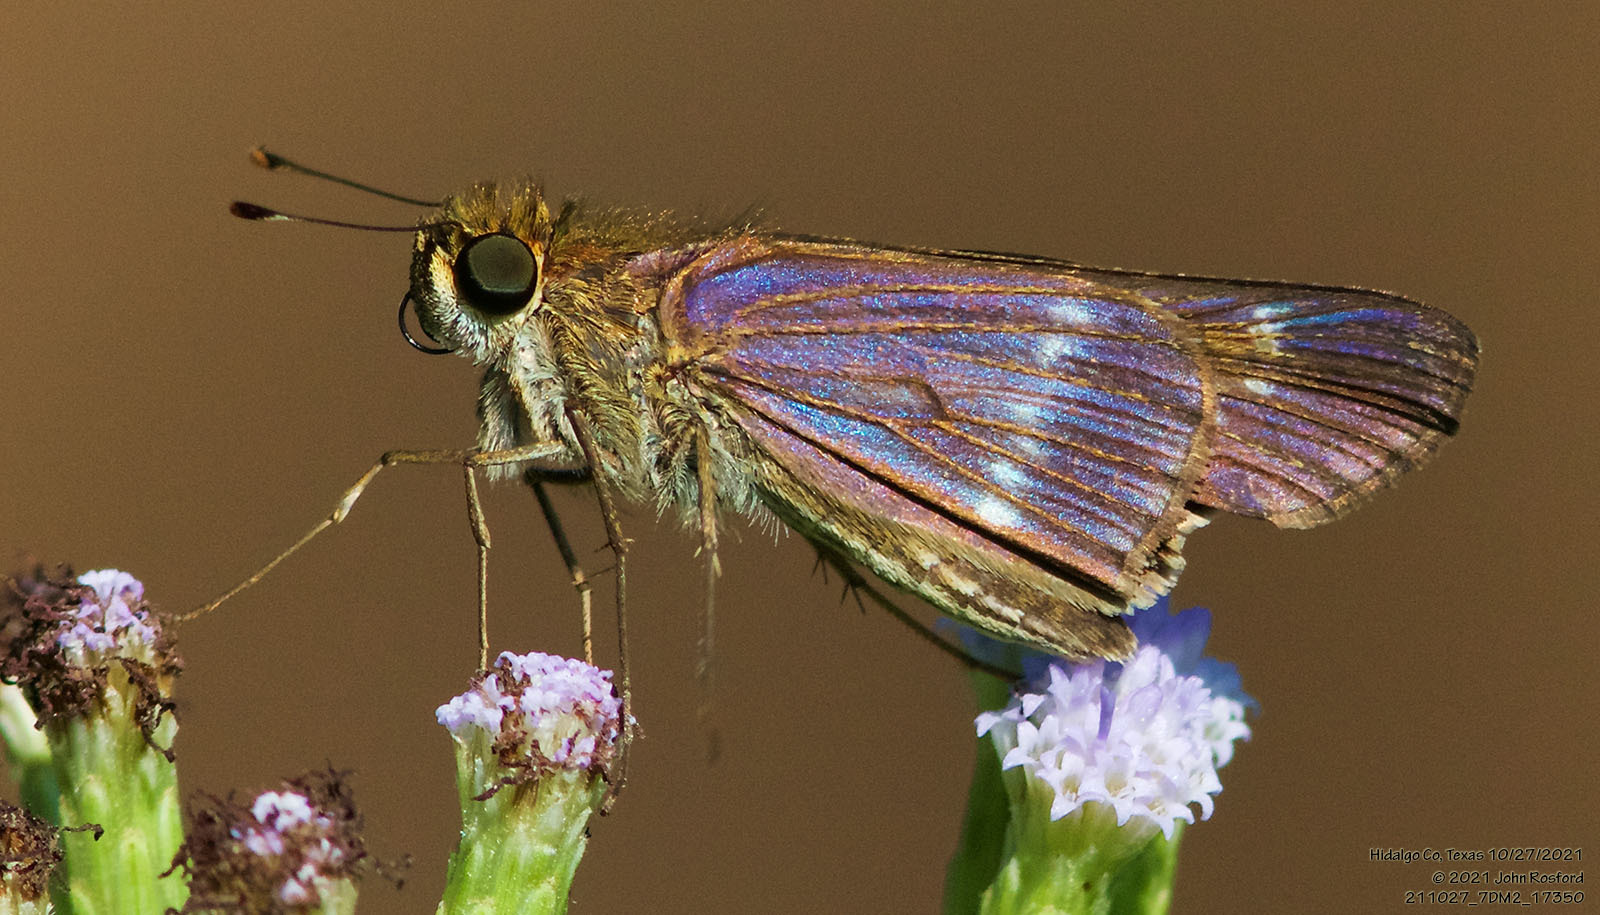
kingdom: Animalia
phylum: Arthropoda
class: Insecta
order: Lepidoptera
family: Hesperiidae
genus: Turesis
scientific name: Turesis lucas
